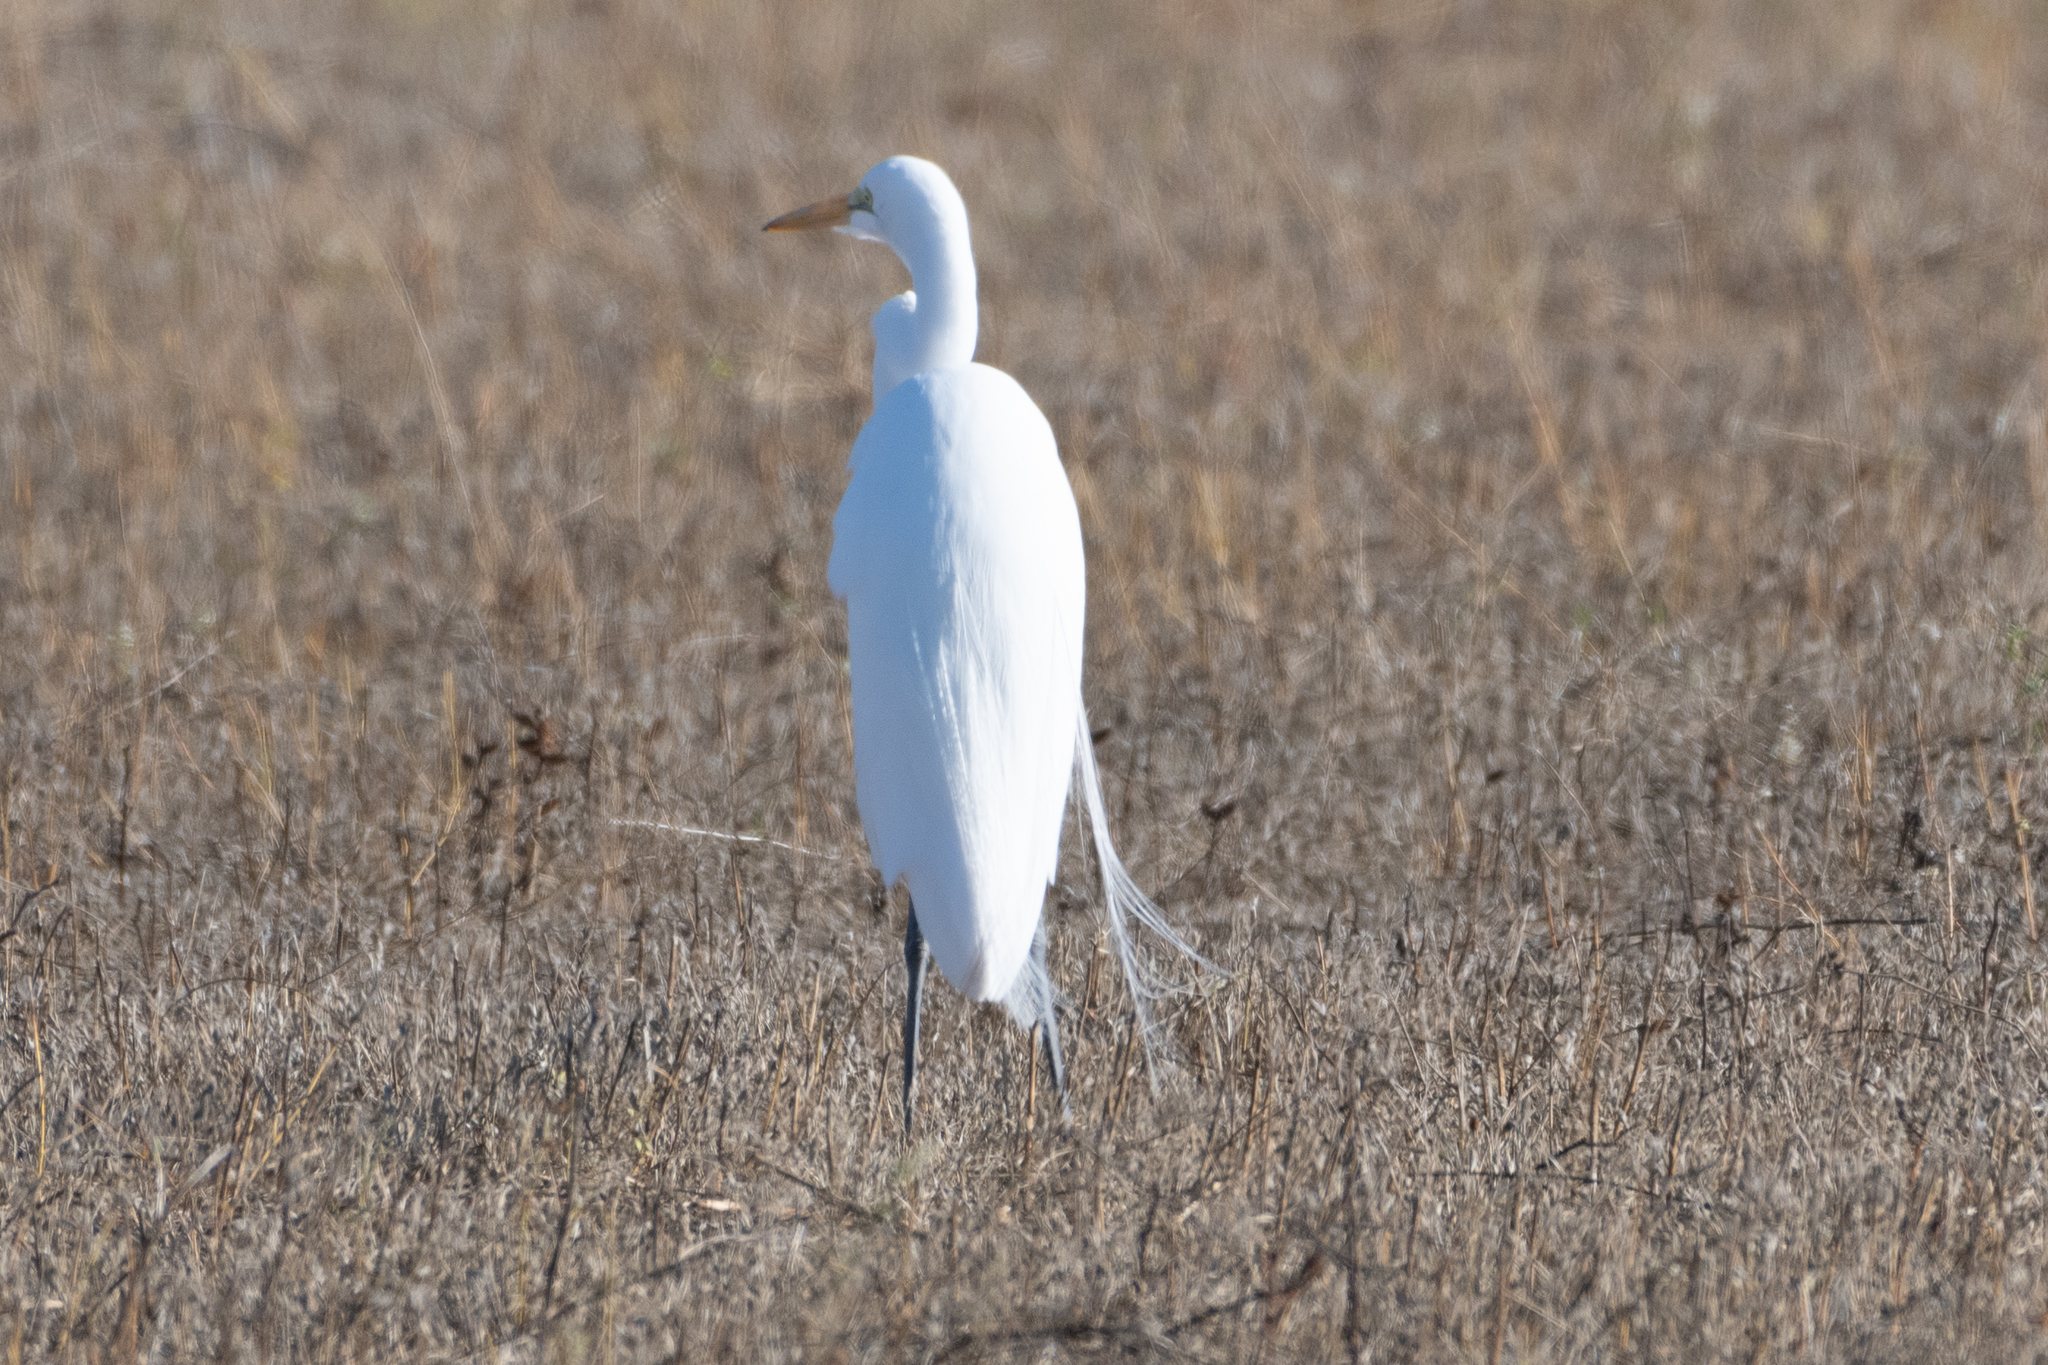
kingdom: Animalia
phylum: Chordata
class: Aves
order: Pelecaniformes
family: Ardeidae
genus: Ardea
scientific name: Ardea alba
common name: Great egret
